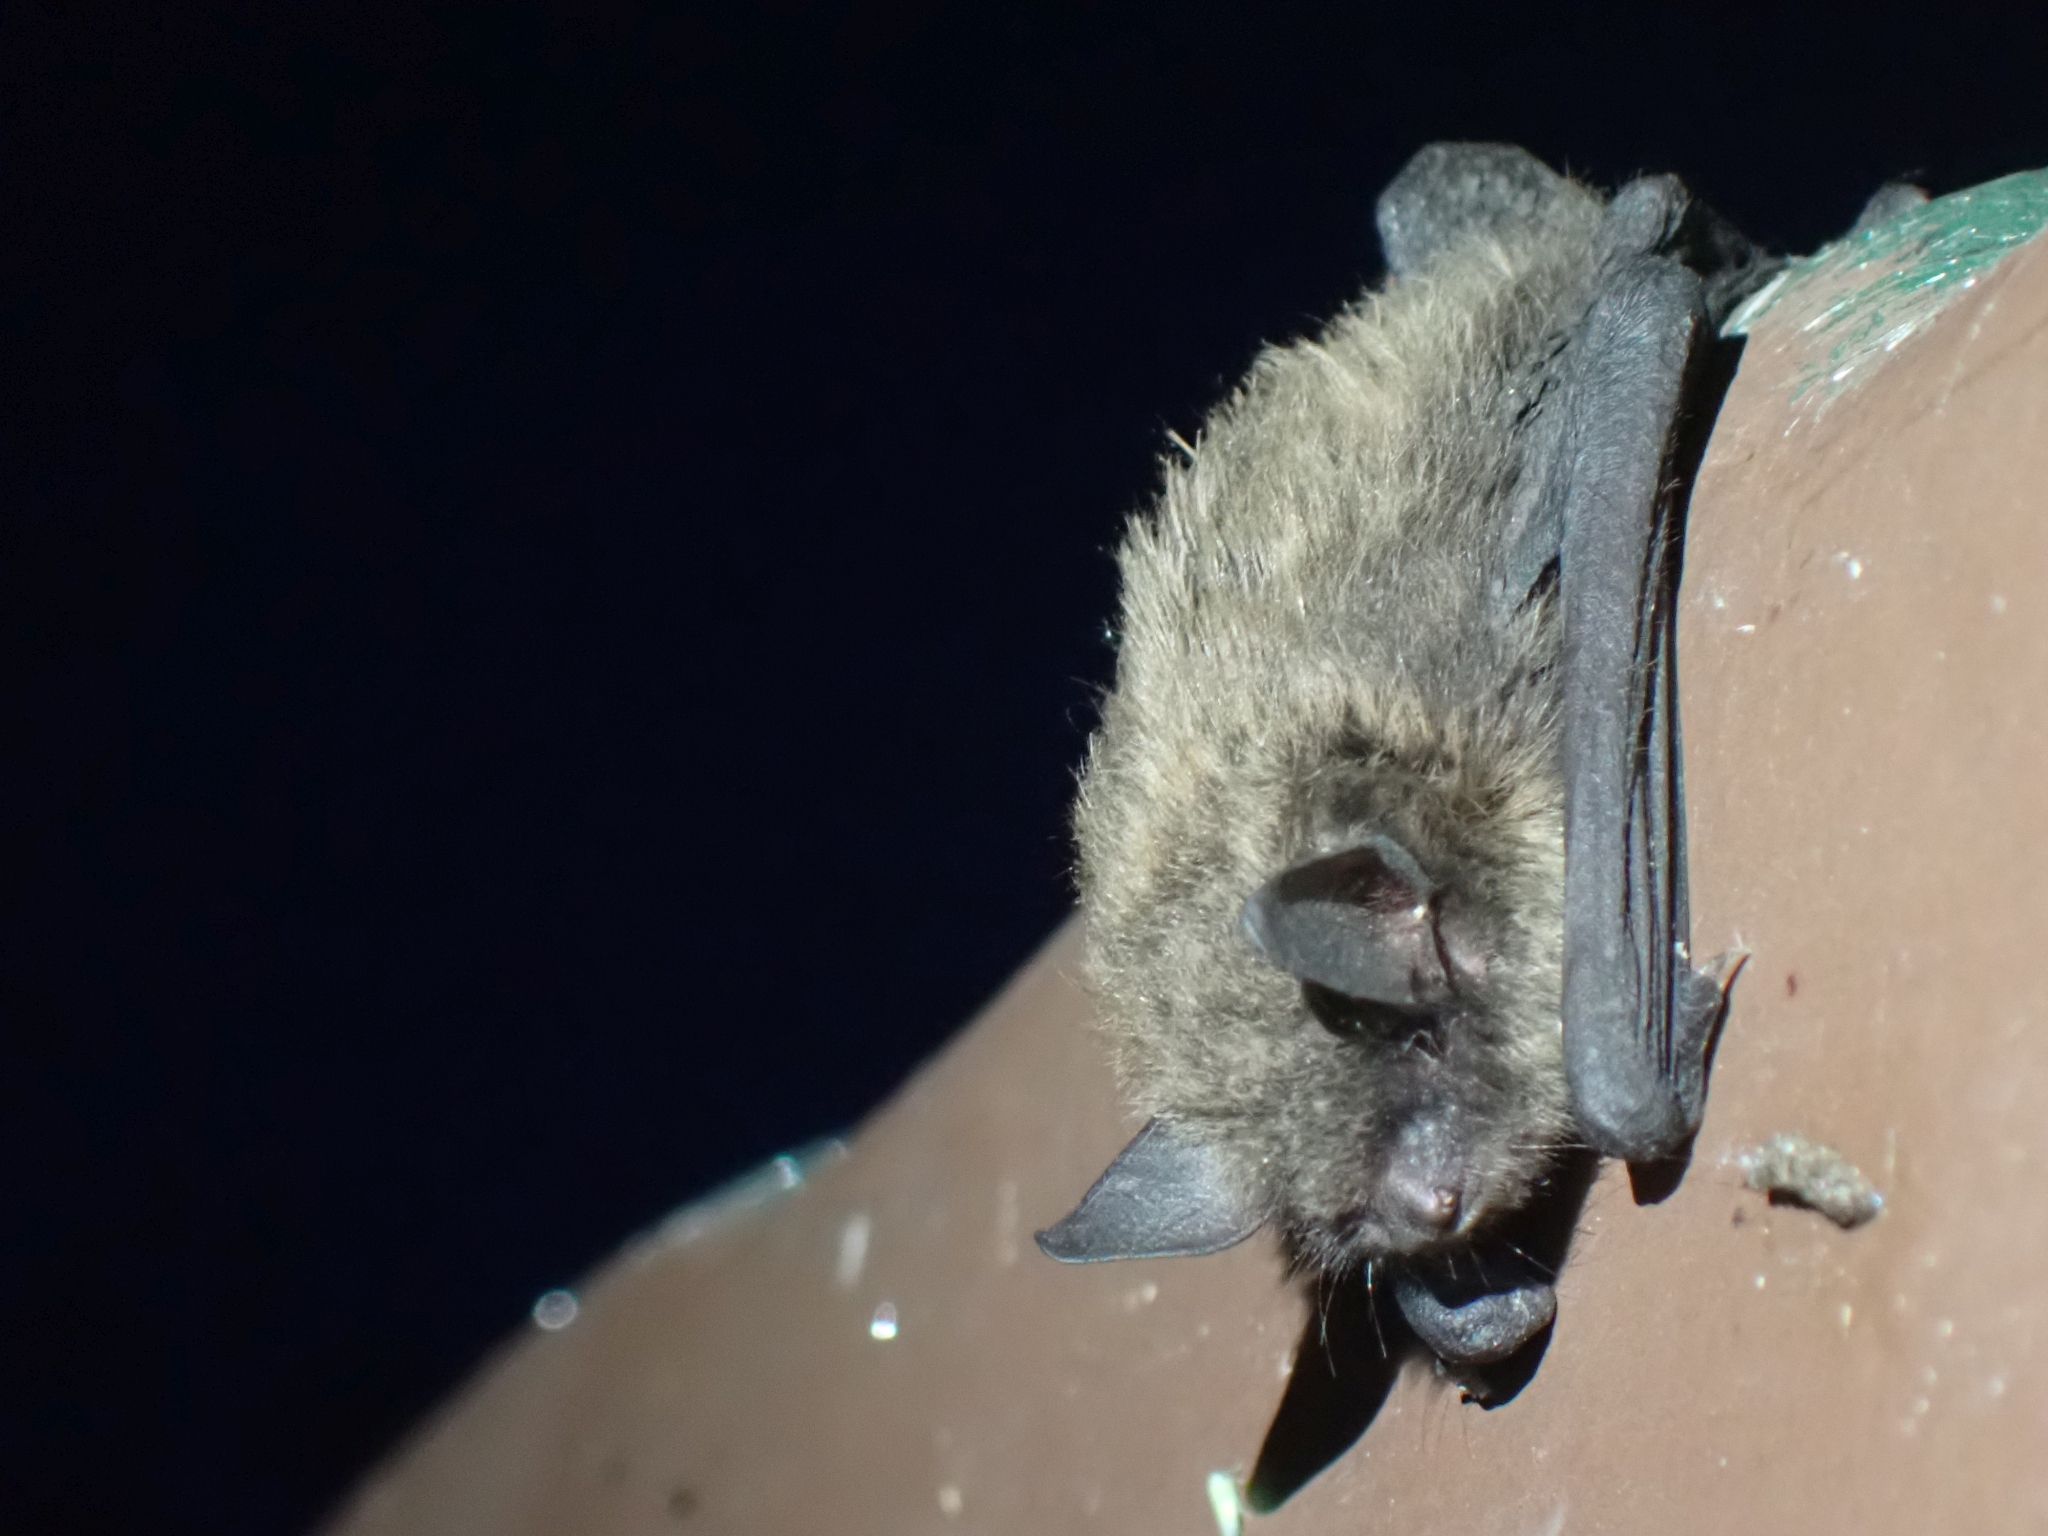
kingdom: Animalia
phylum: Chordata
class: Mammalia
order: Chiroptera
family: Vespertilionidae
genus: Myotis
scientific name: Myotis lucifugus
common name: Little brown bat
